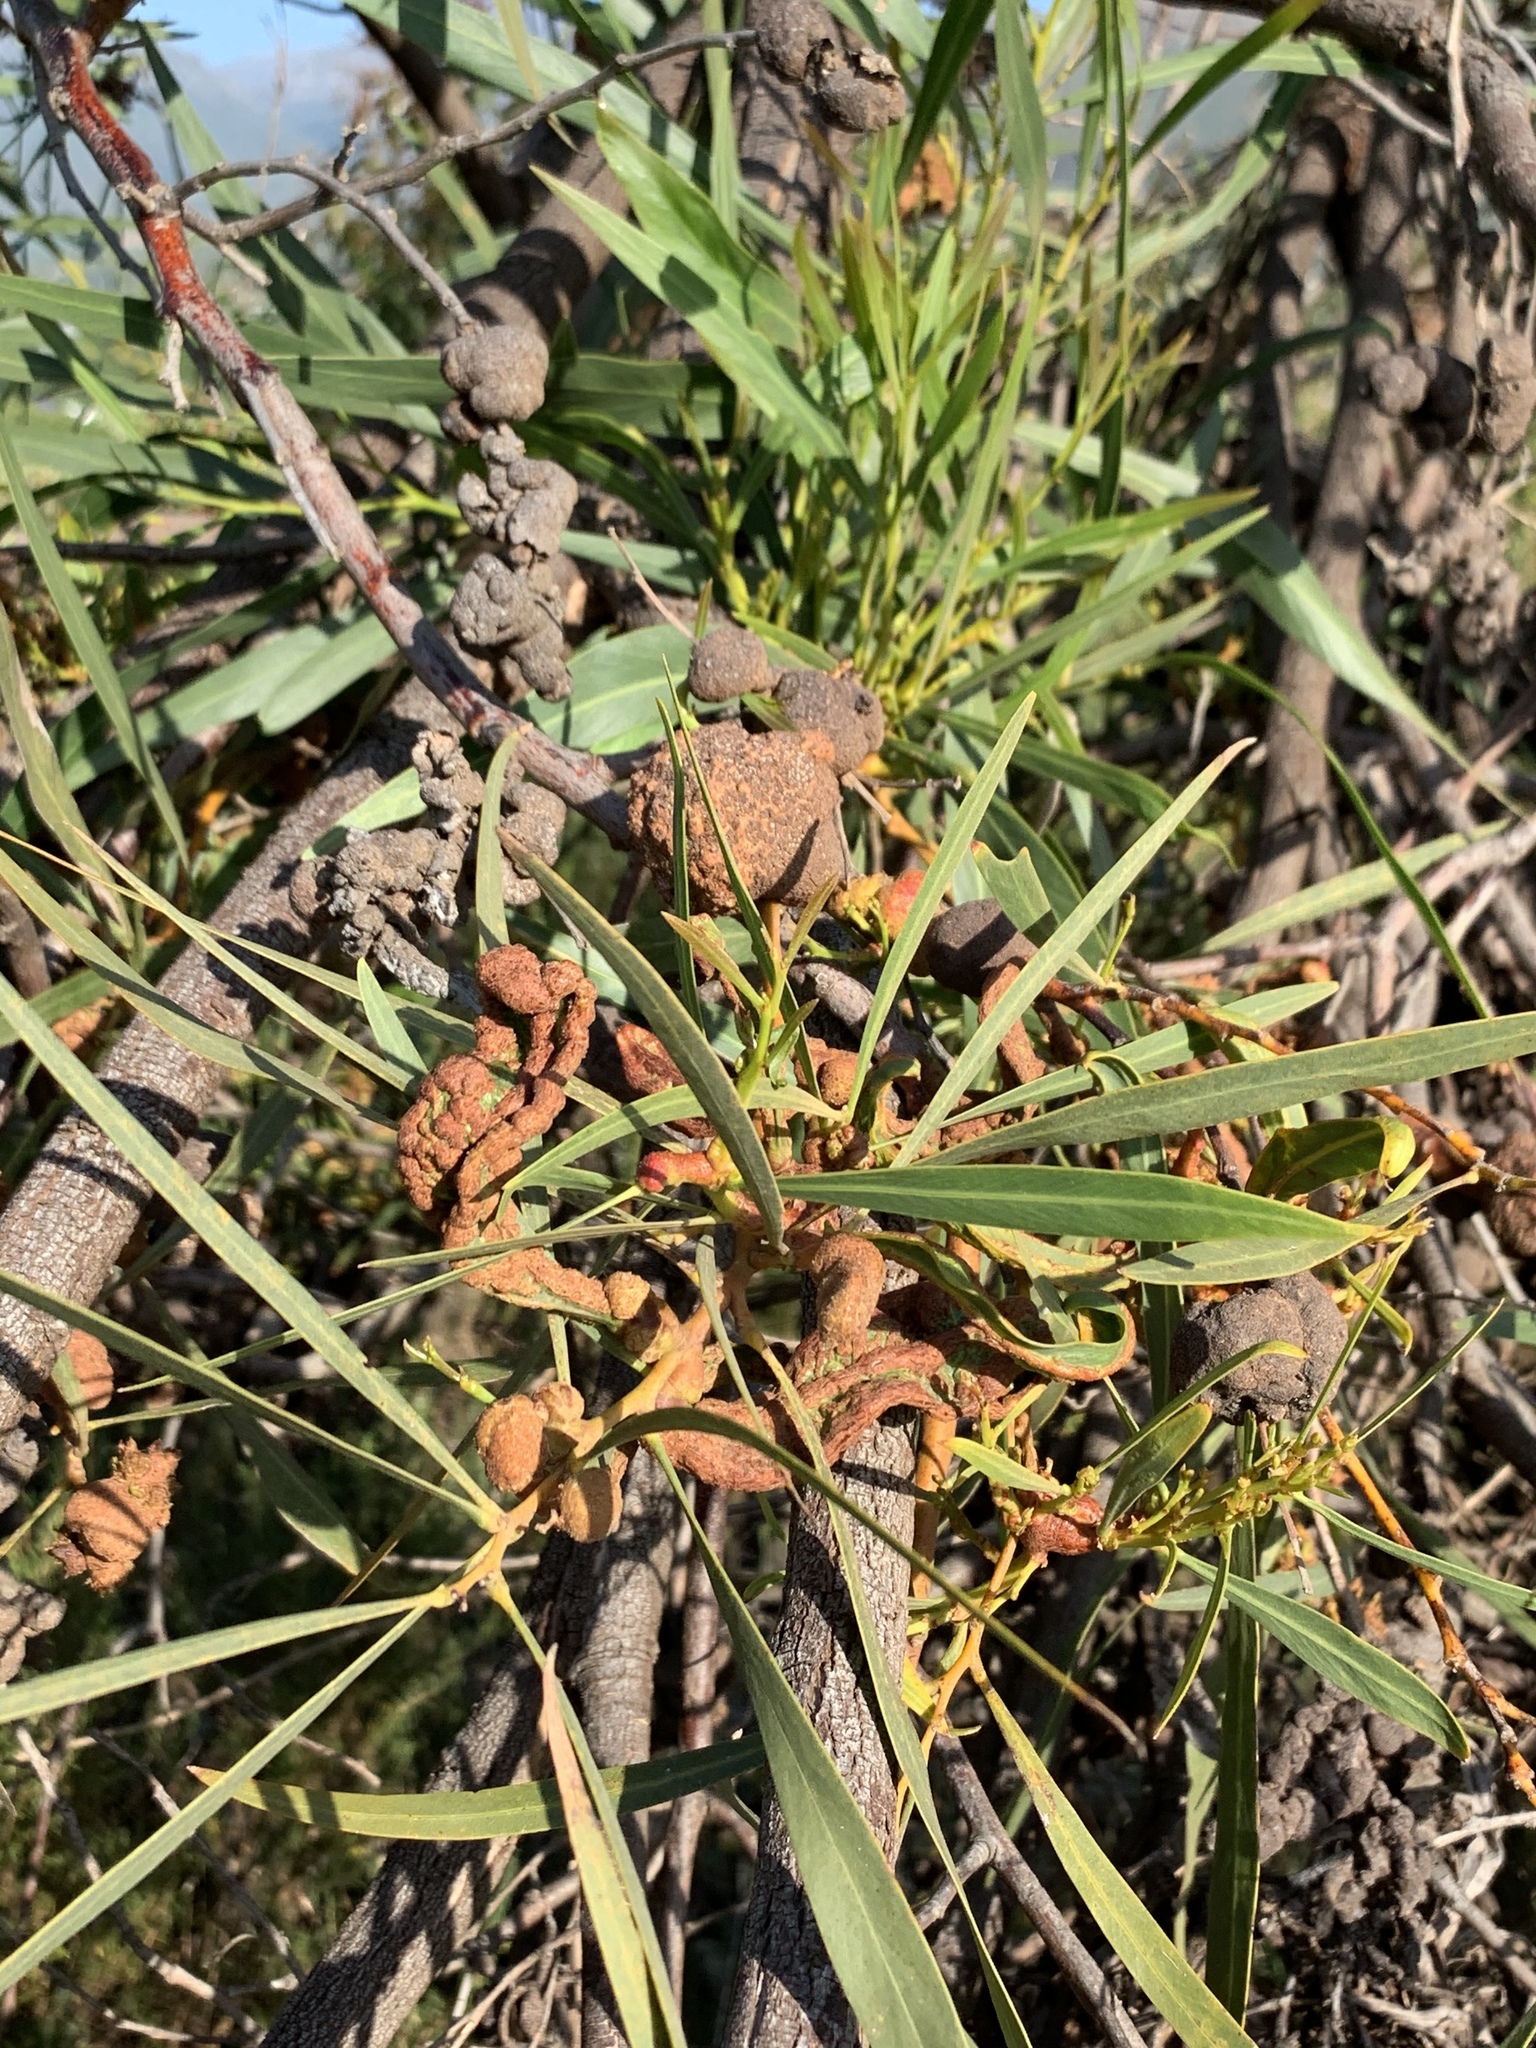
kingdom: Fungi
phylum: Basidiomycota
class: Pucciniomycetes
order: Pucciniales
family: Uromycladiaceae
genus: Uromycladium
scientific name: Uromycladium morrisii
